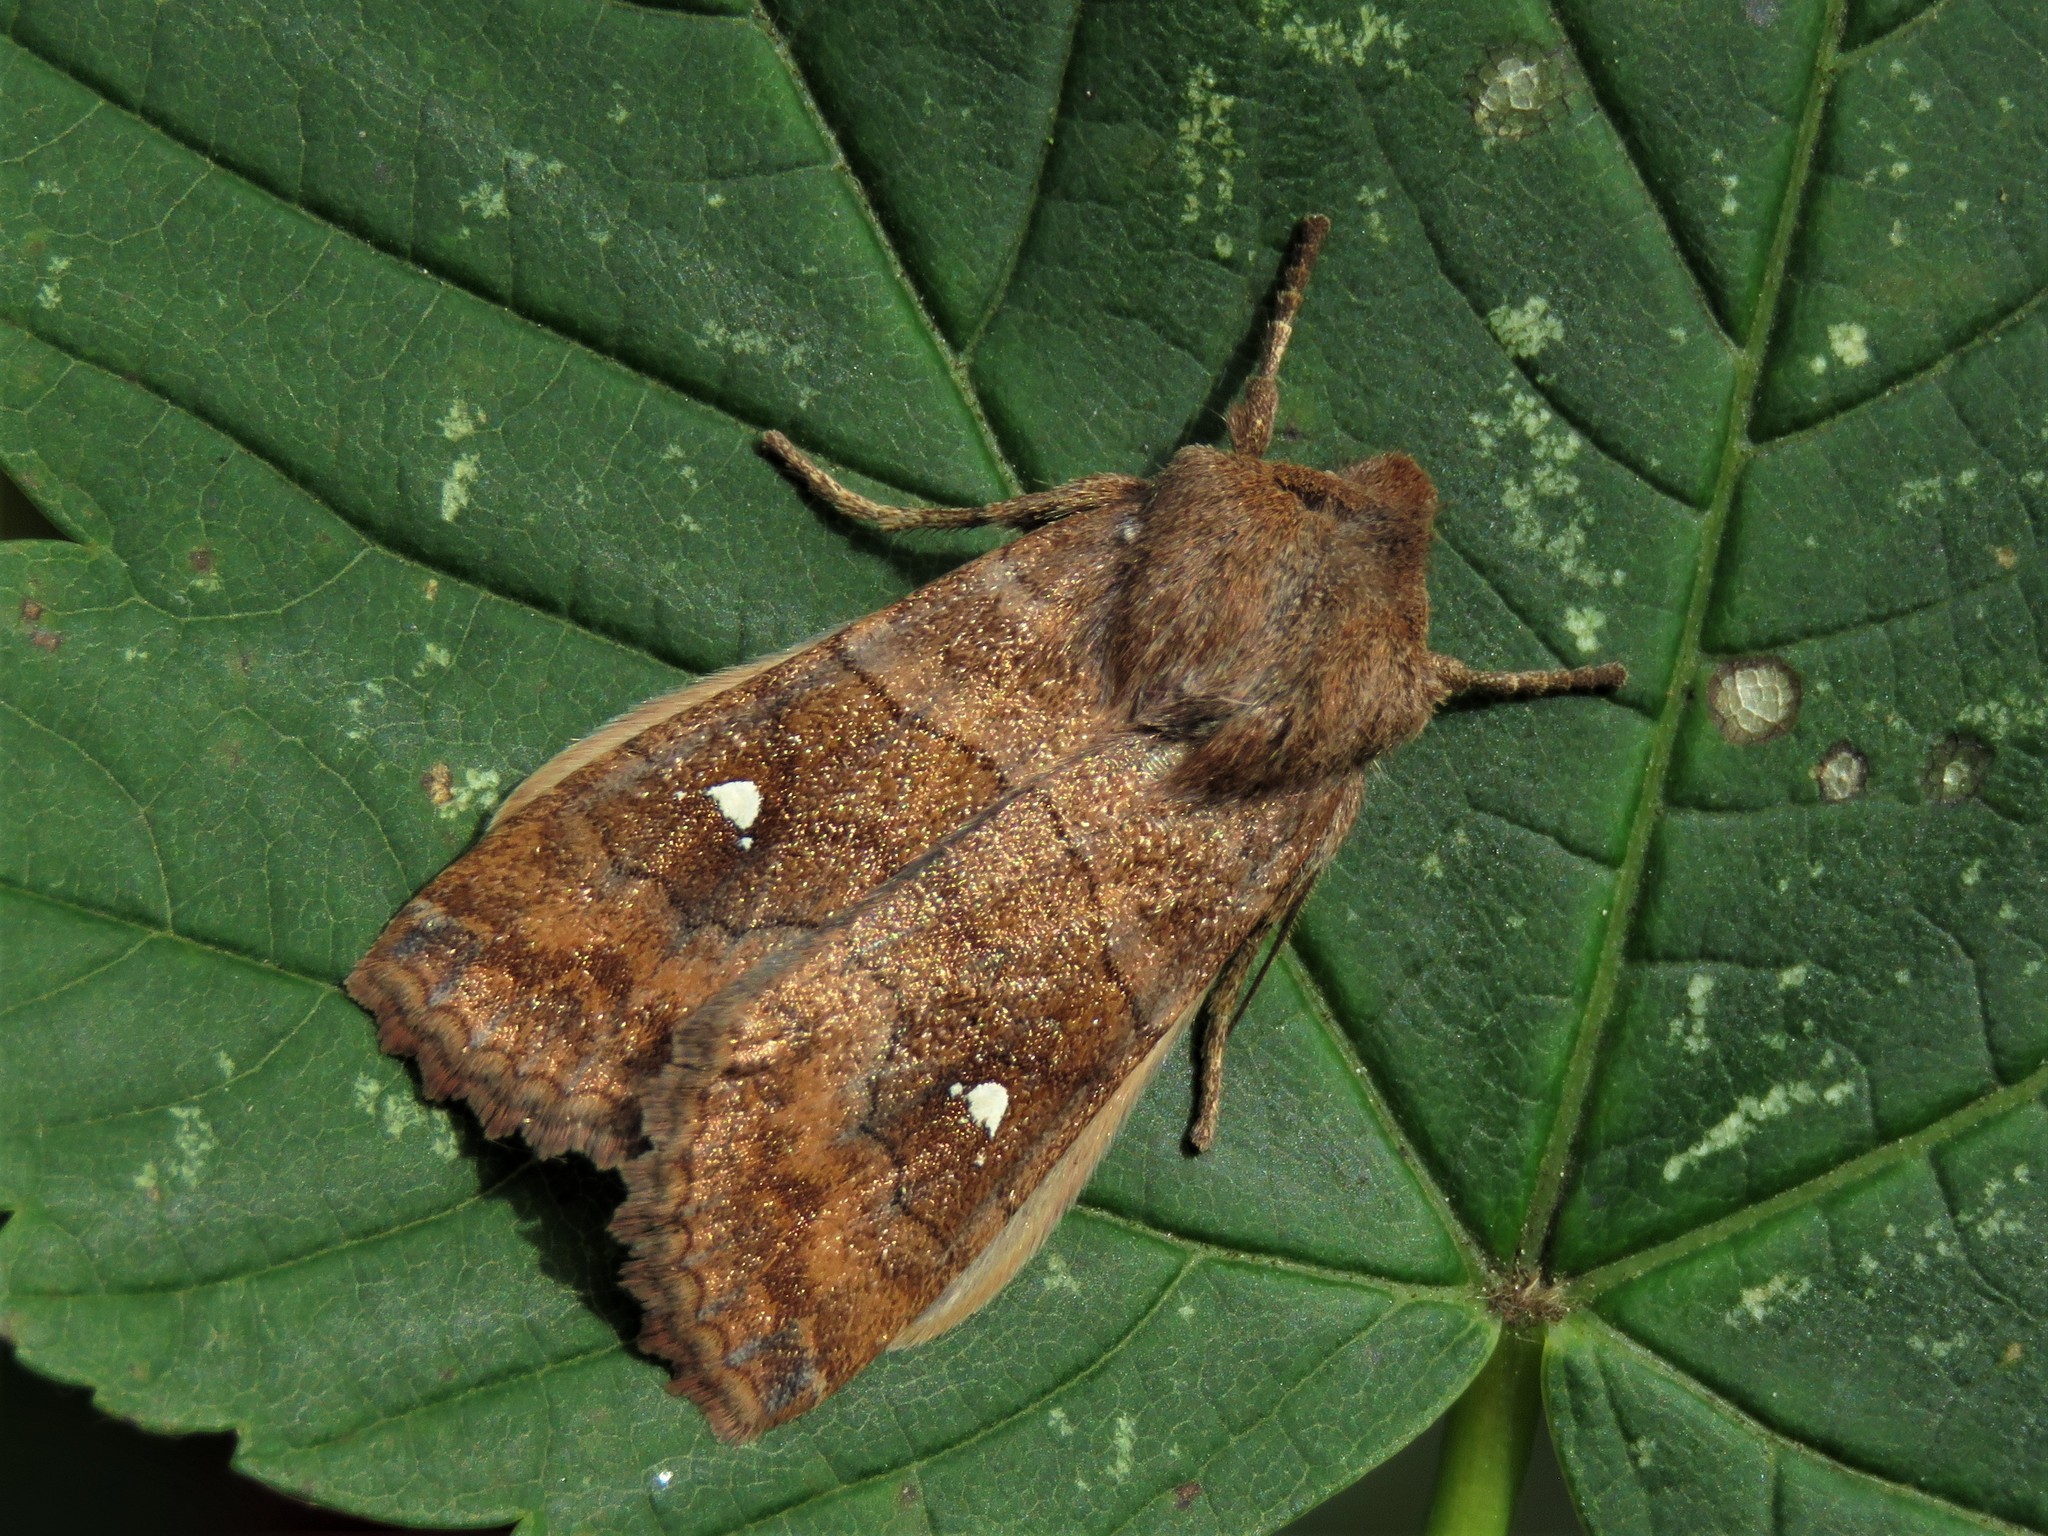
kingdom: Animalia
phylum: Arthropoda
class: Insecta
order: Lepidoptera
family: Noctuidae
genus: Eupsilia
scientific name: Eupsilia transversa
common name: Satellite
